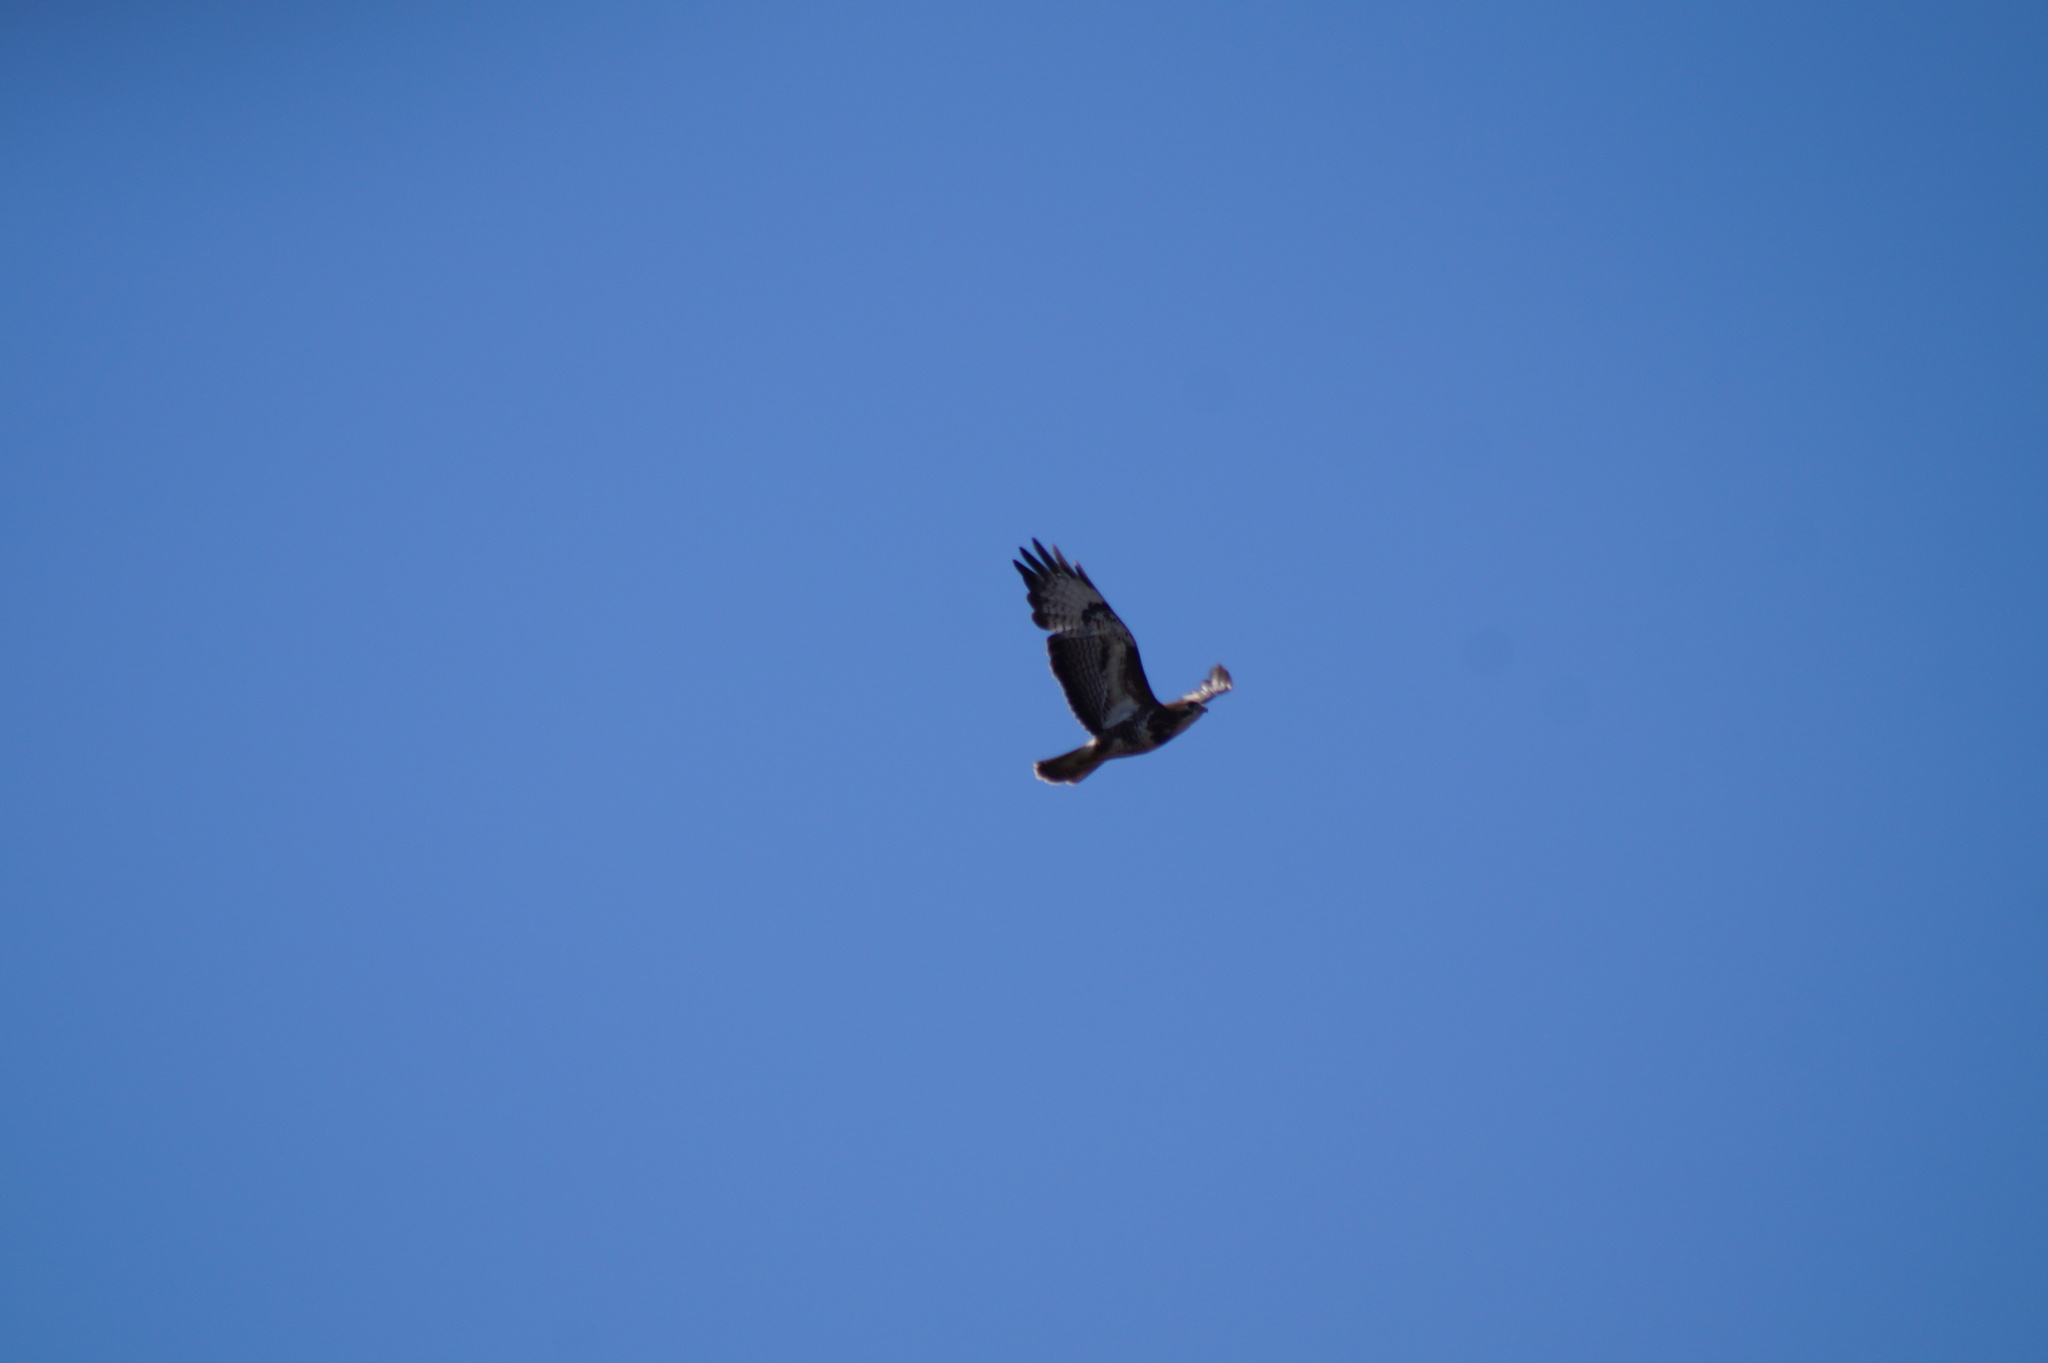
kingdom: Animalia
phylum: Chordata
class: Aves
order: Accipitriformes
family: Accipitridae
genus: Buteo
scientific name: Buteo buteo
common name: Common buzzard
